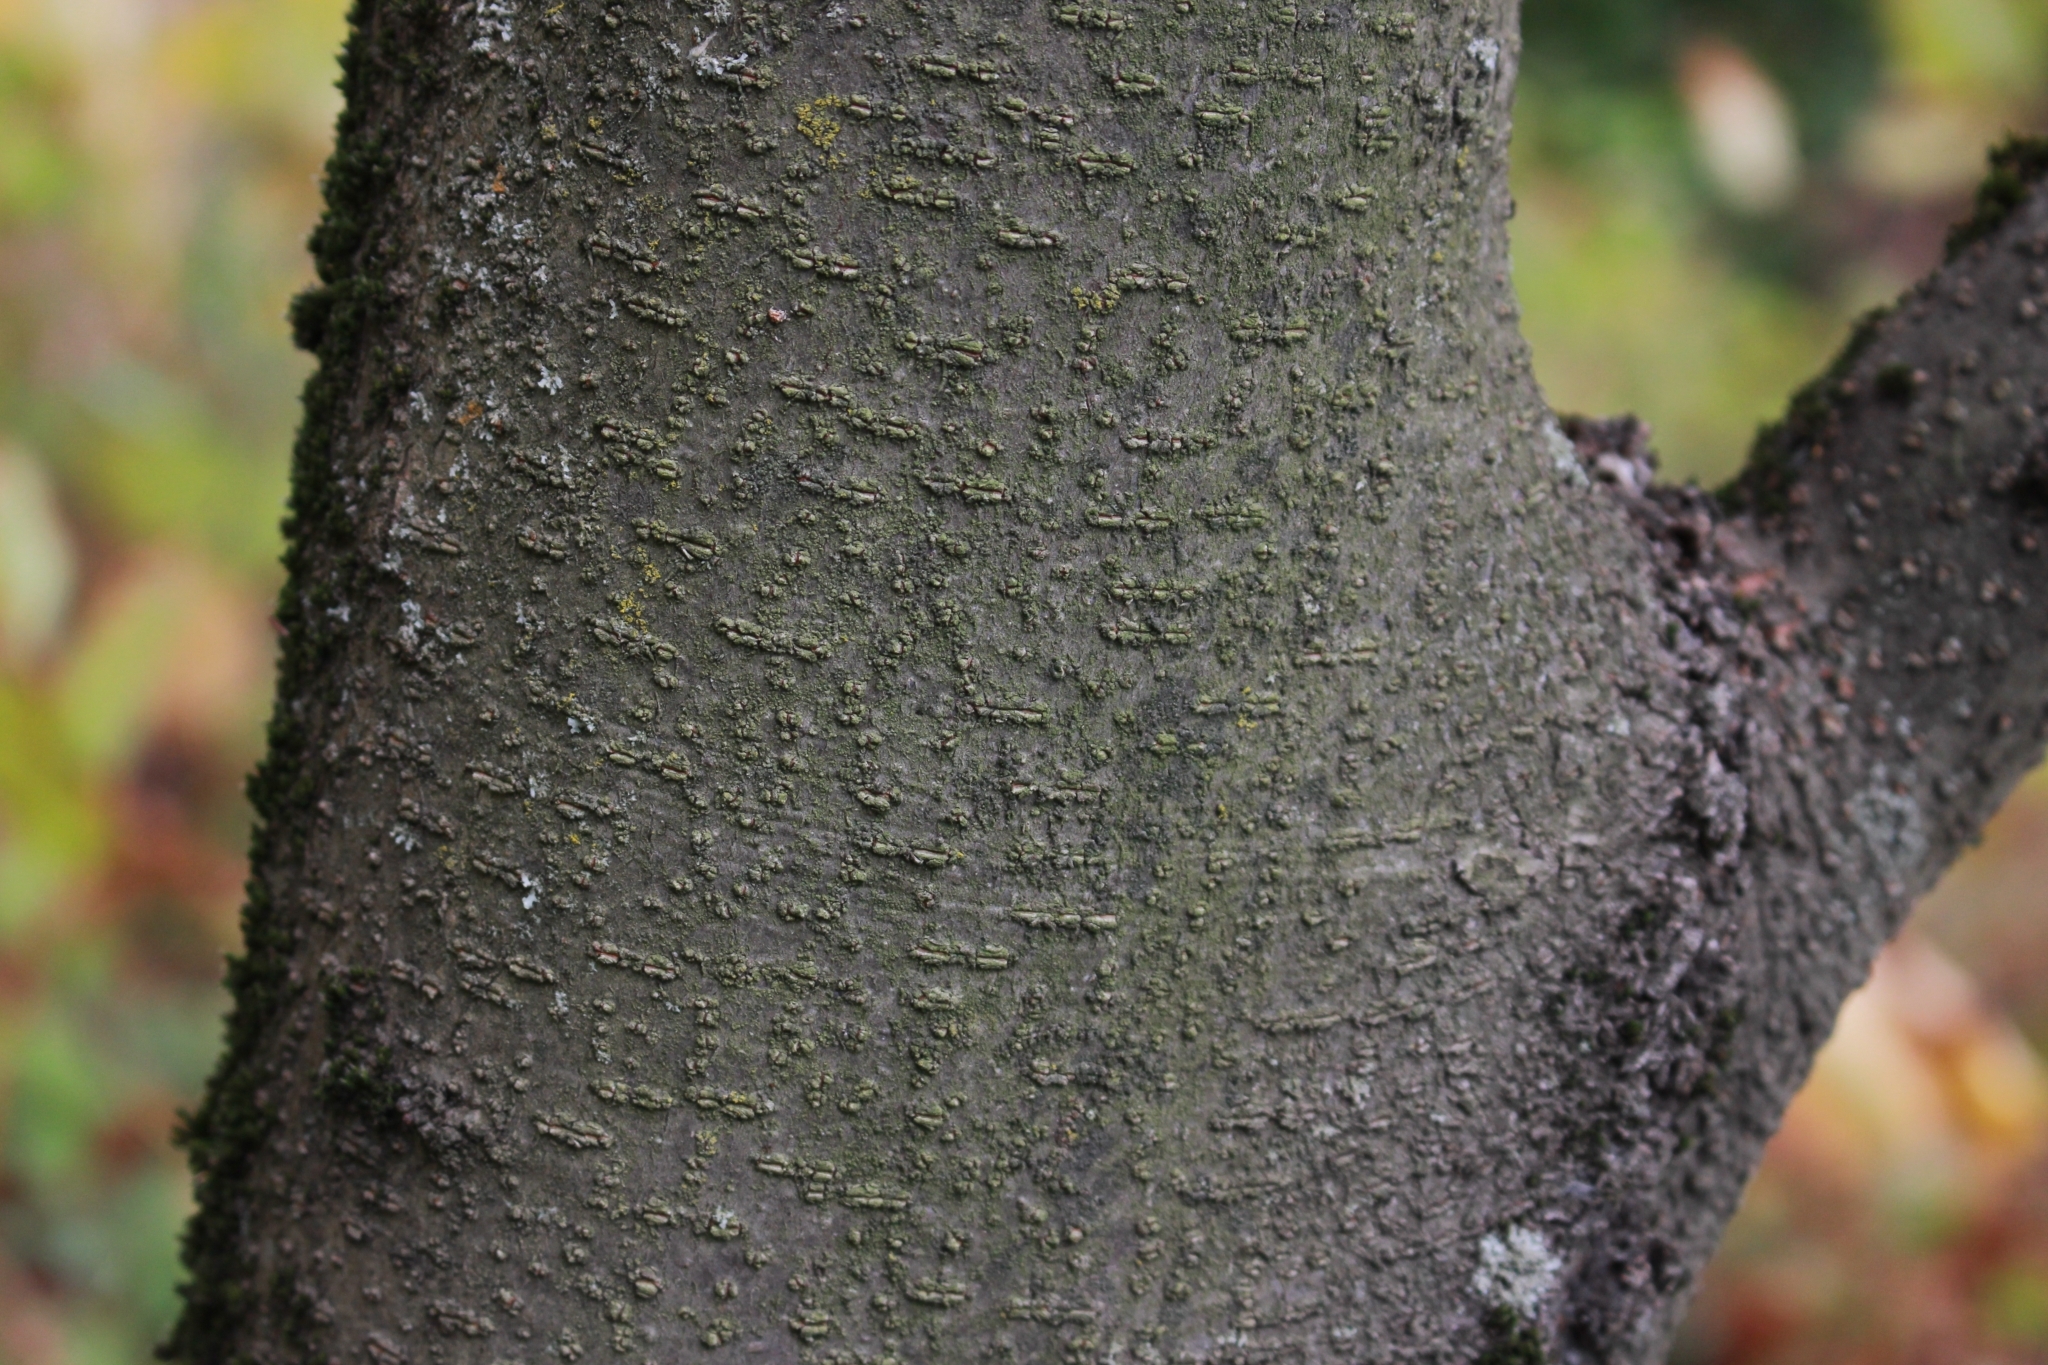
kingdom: Plantae
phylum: Tracheophyta
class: Magnoliopsida
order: Fabales
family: Fabaceae
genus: Gleditsia
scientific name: Gleditsia triacanthos
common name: Common honeylocust
